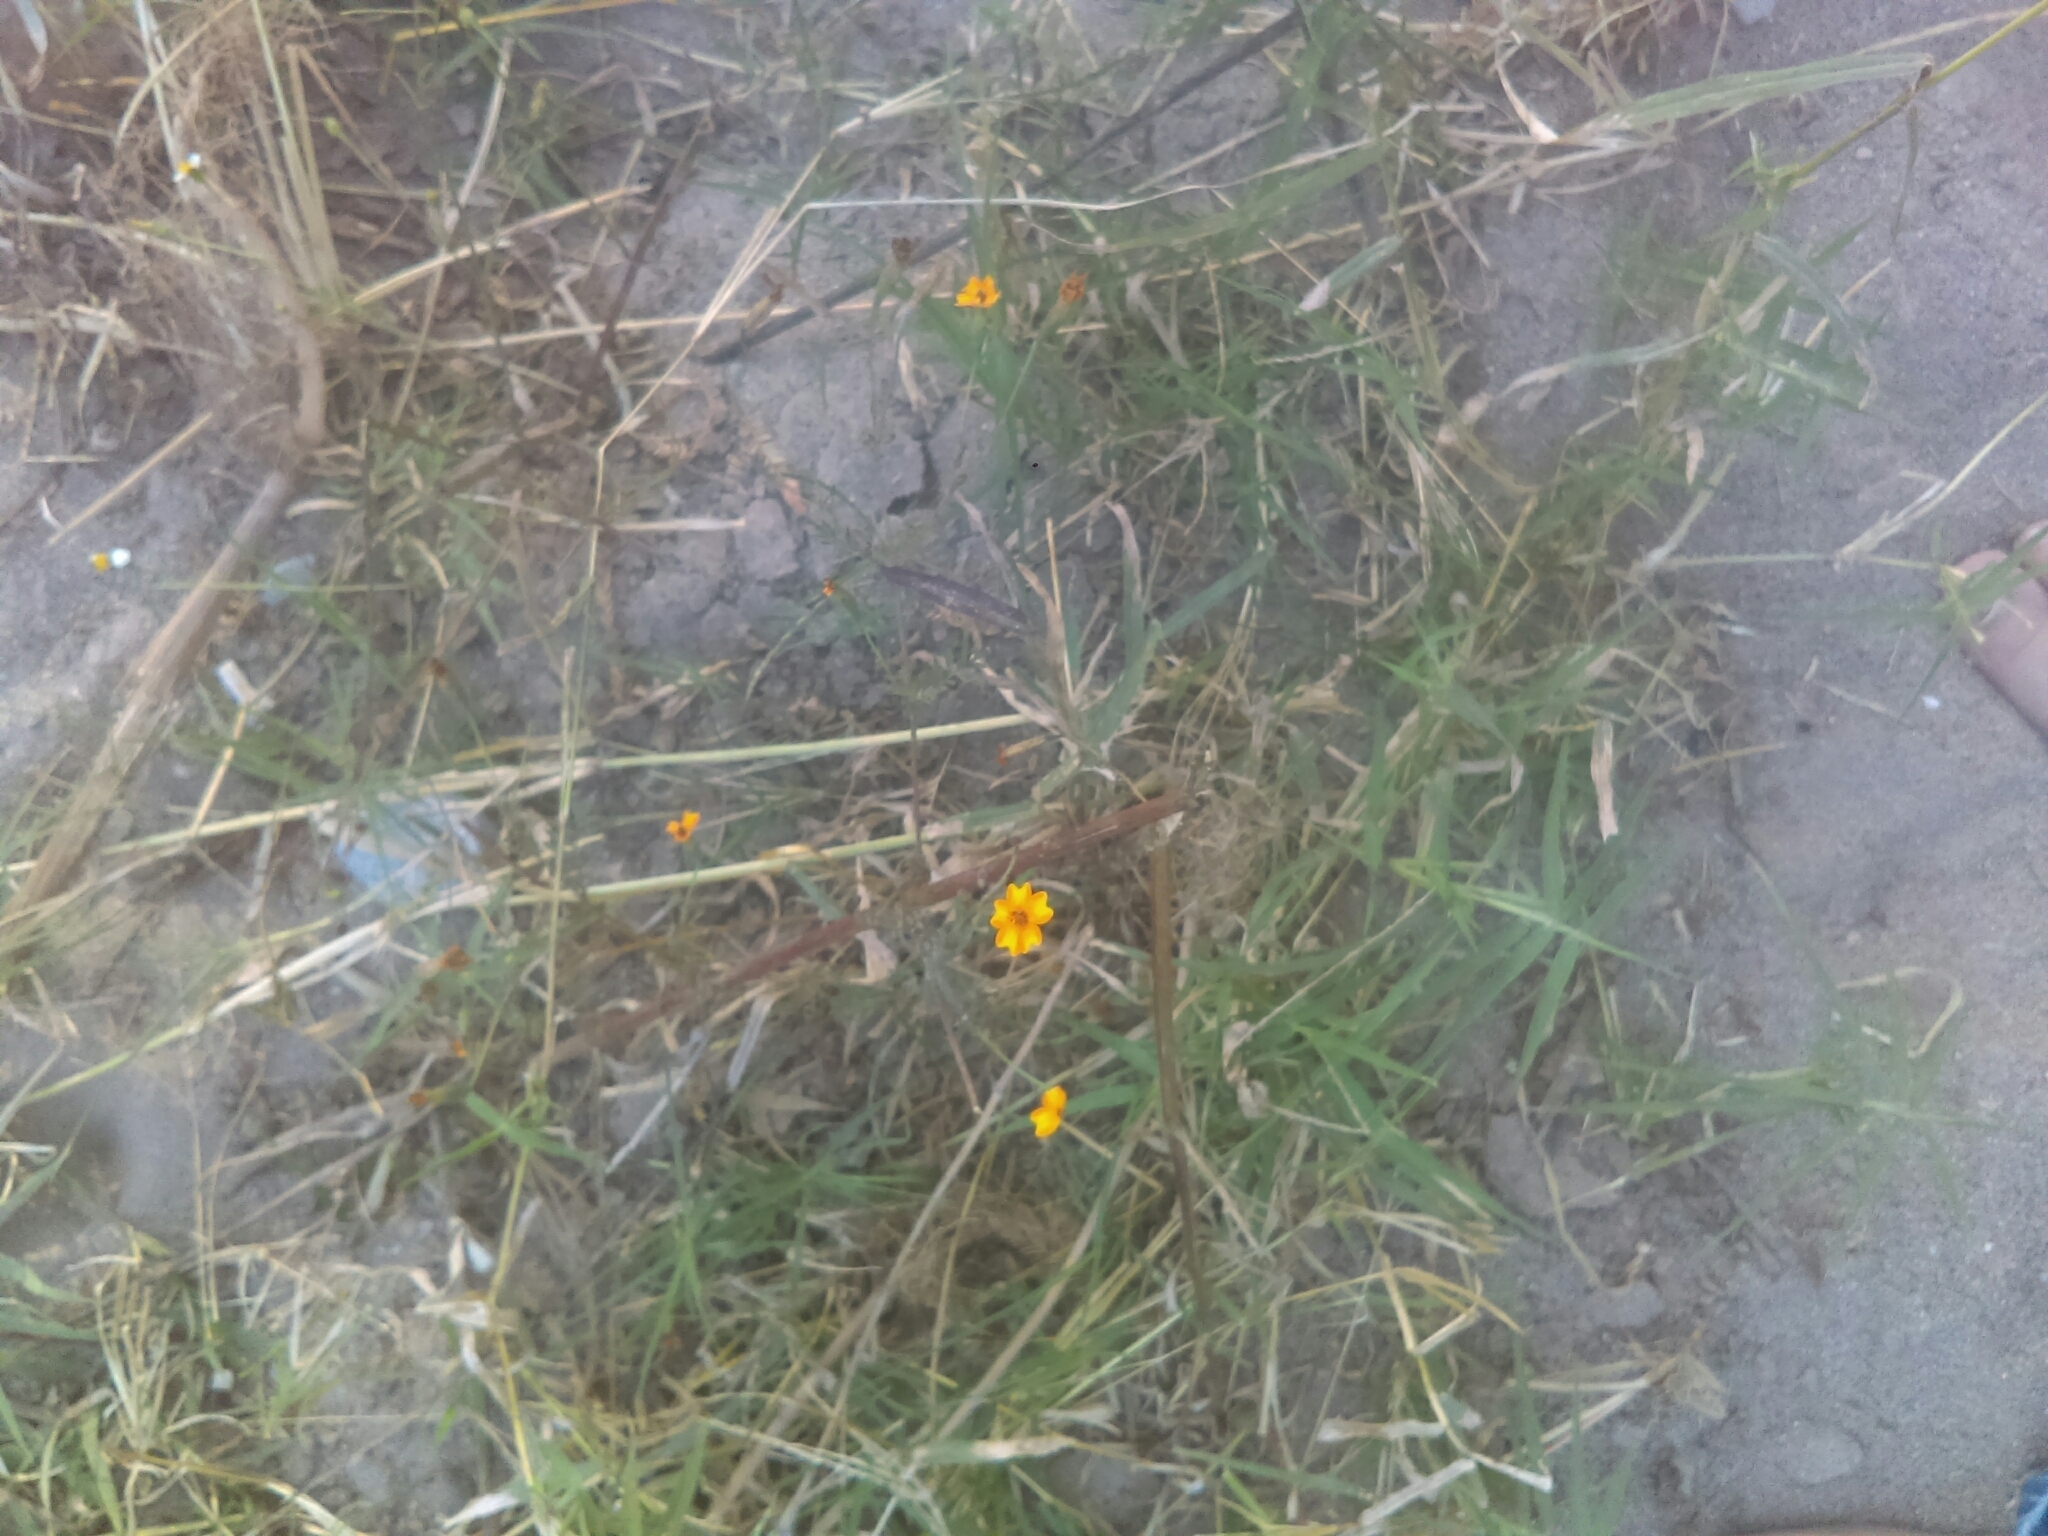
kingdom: Plantae
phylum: Tracheophyta
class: Magnoliopsida
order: Asterales
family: Asteraceae
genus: Tagetes
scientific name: Tagetes lunulata
